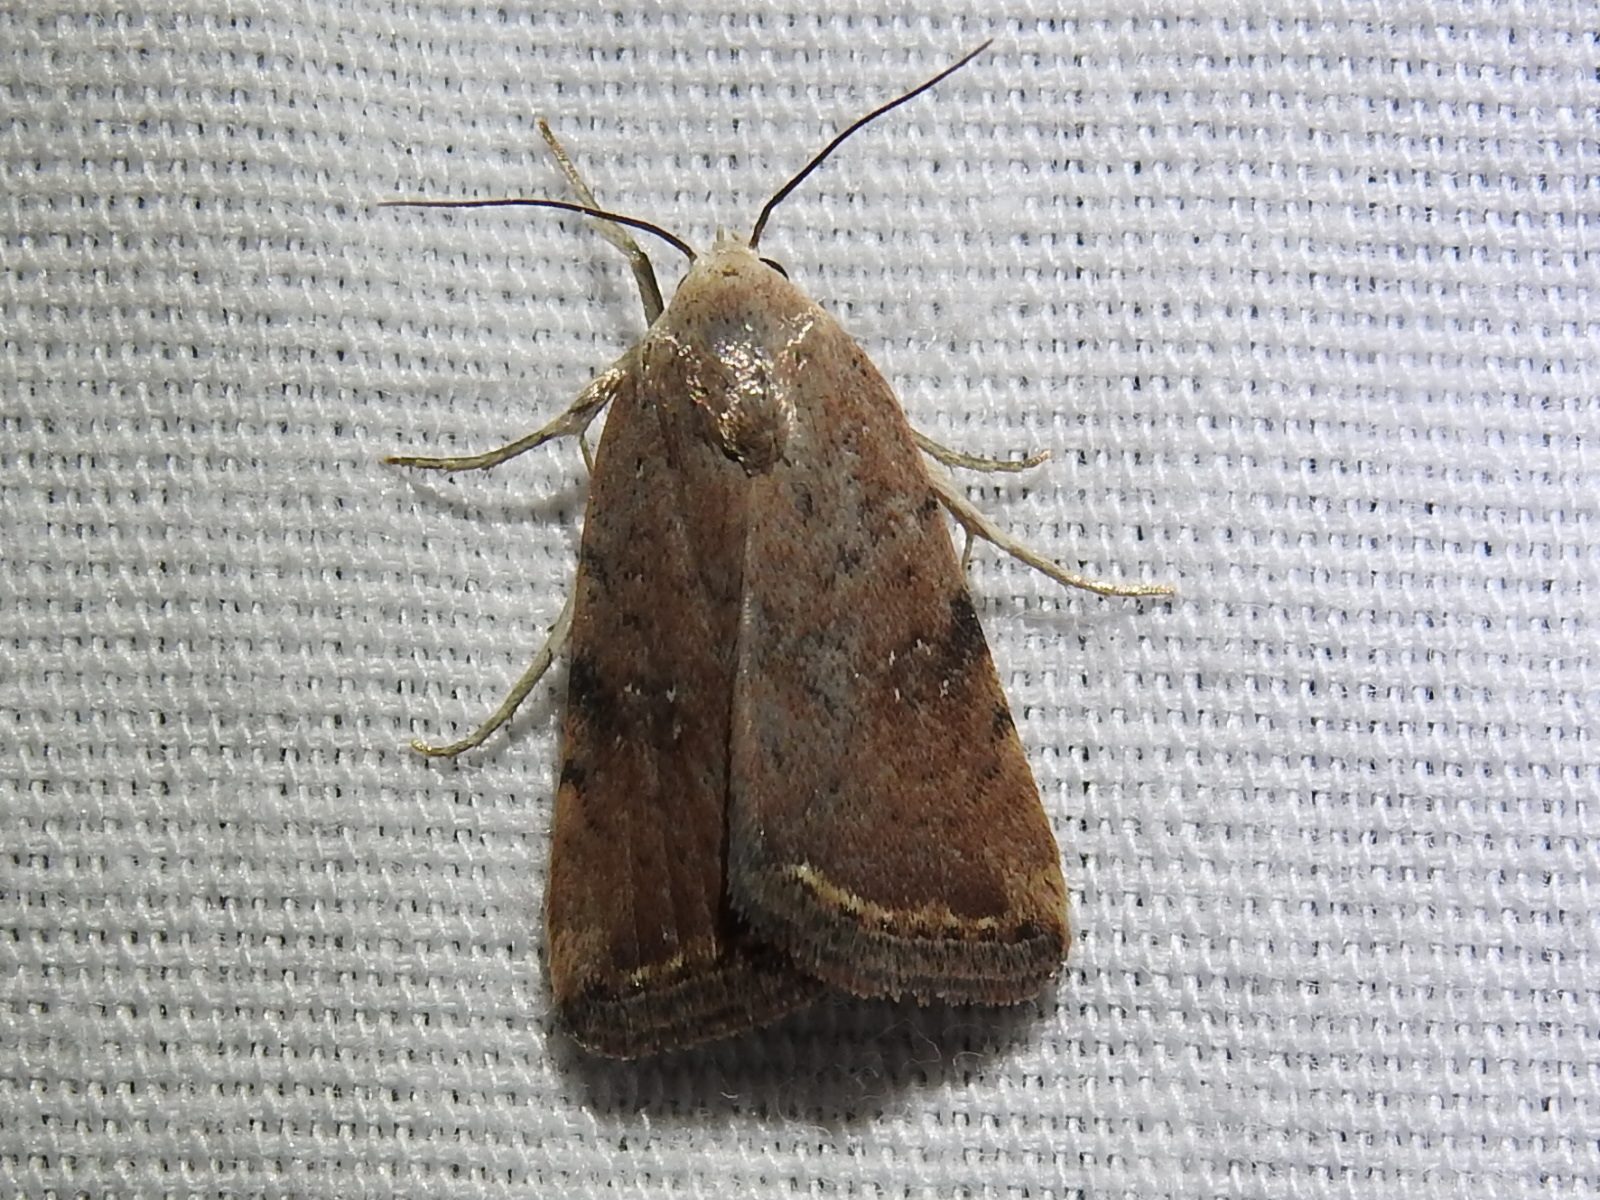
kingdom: Animalia
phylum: Arthropoda
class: Insecta
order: Lepidoptera
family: Noctuidae
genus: Micrathetis
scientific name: Micrathetis triplex
